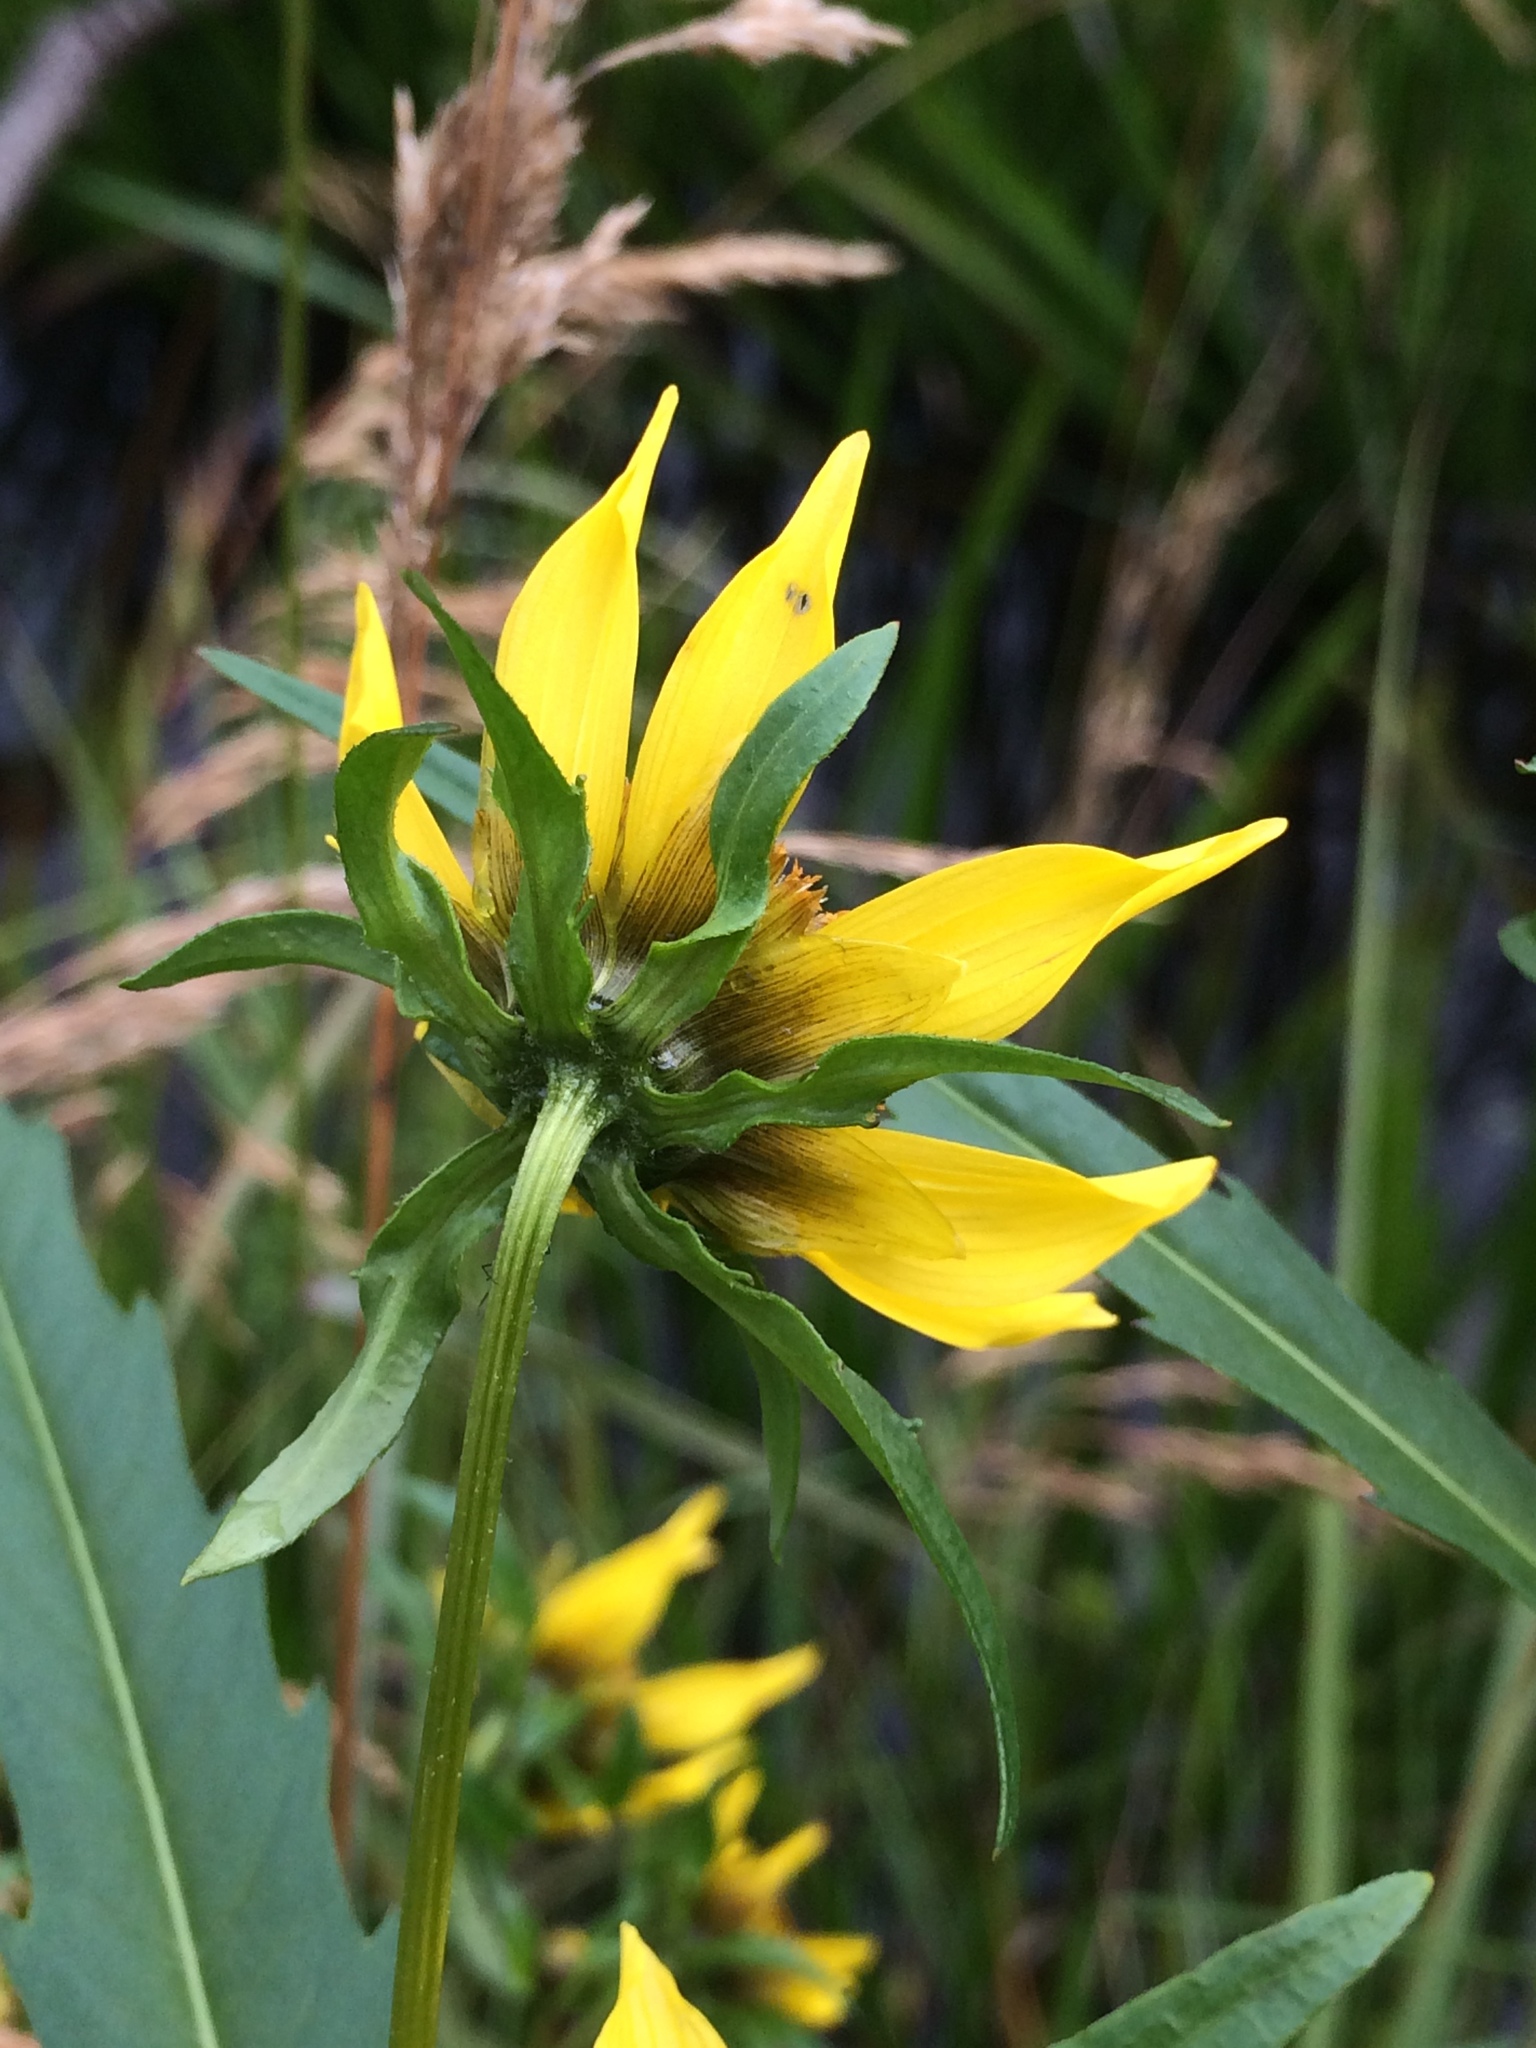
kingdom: Plantae
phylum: Tracheophyta
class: Magnoliopsida
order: Asterales
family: Asteraceae
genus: Bidens
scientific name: Bidens cernua
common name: Nodding bur-marigold
